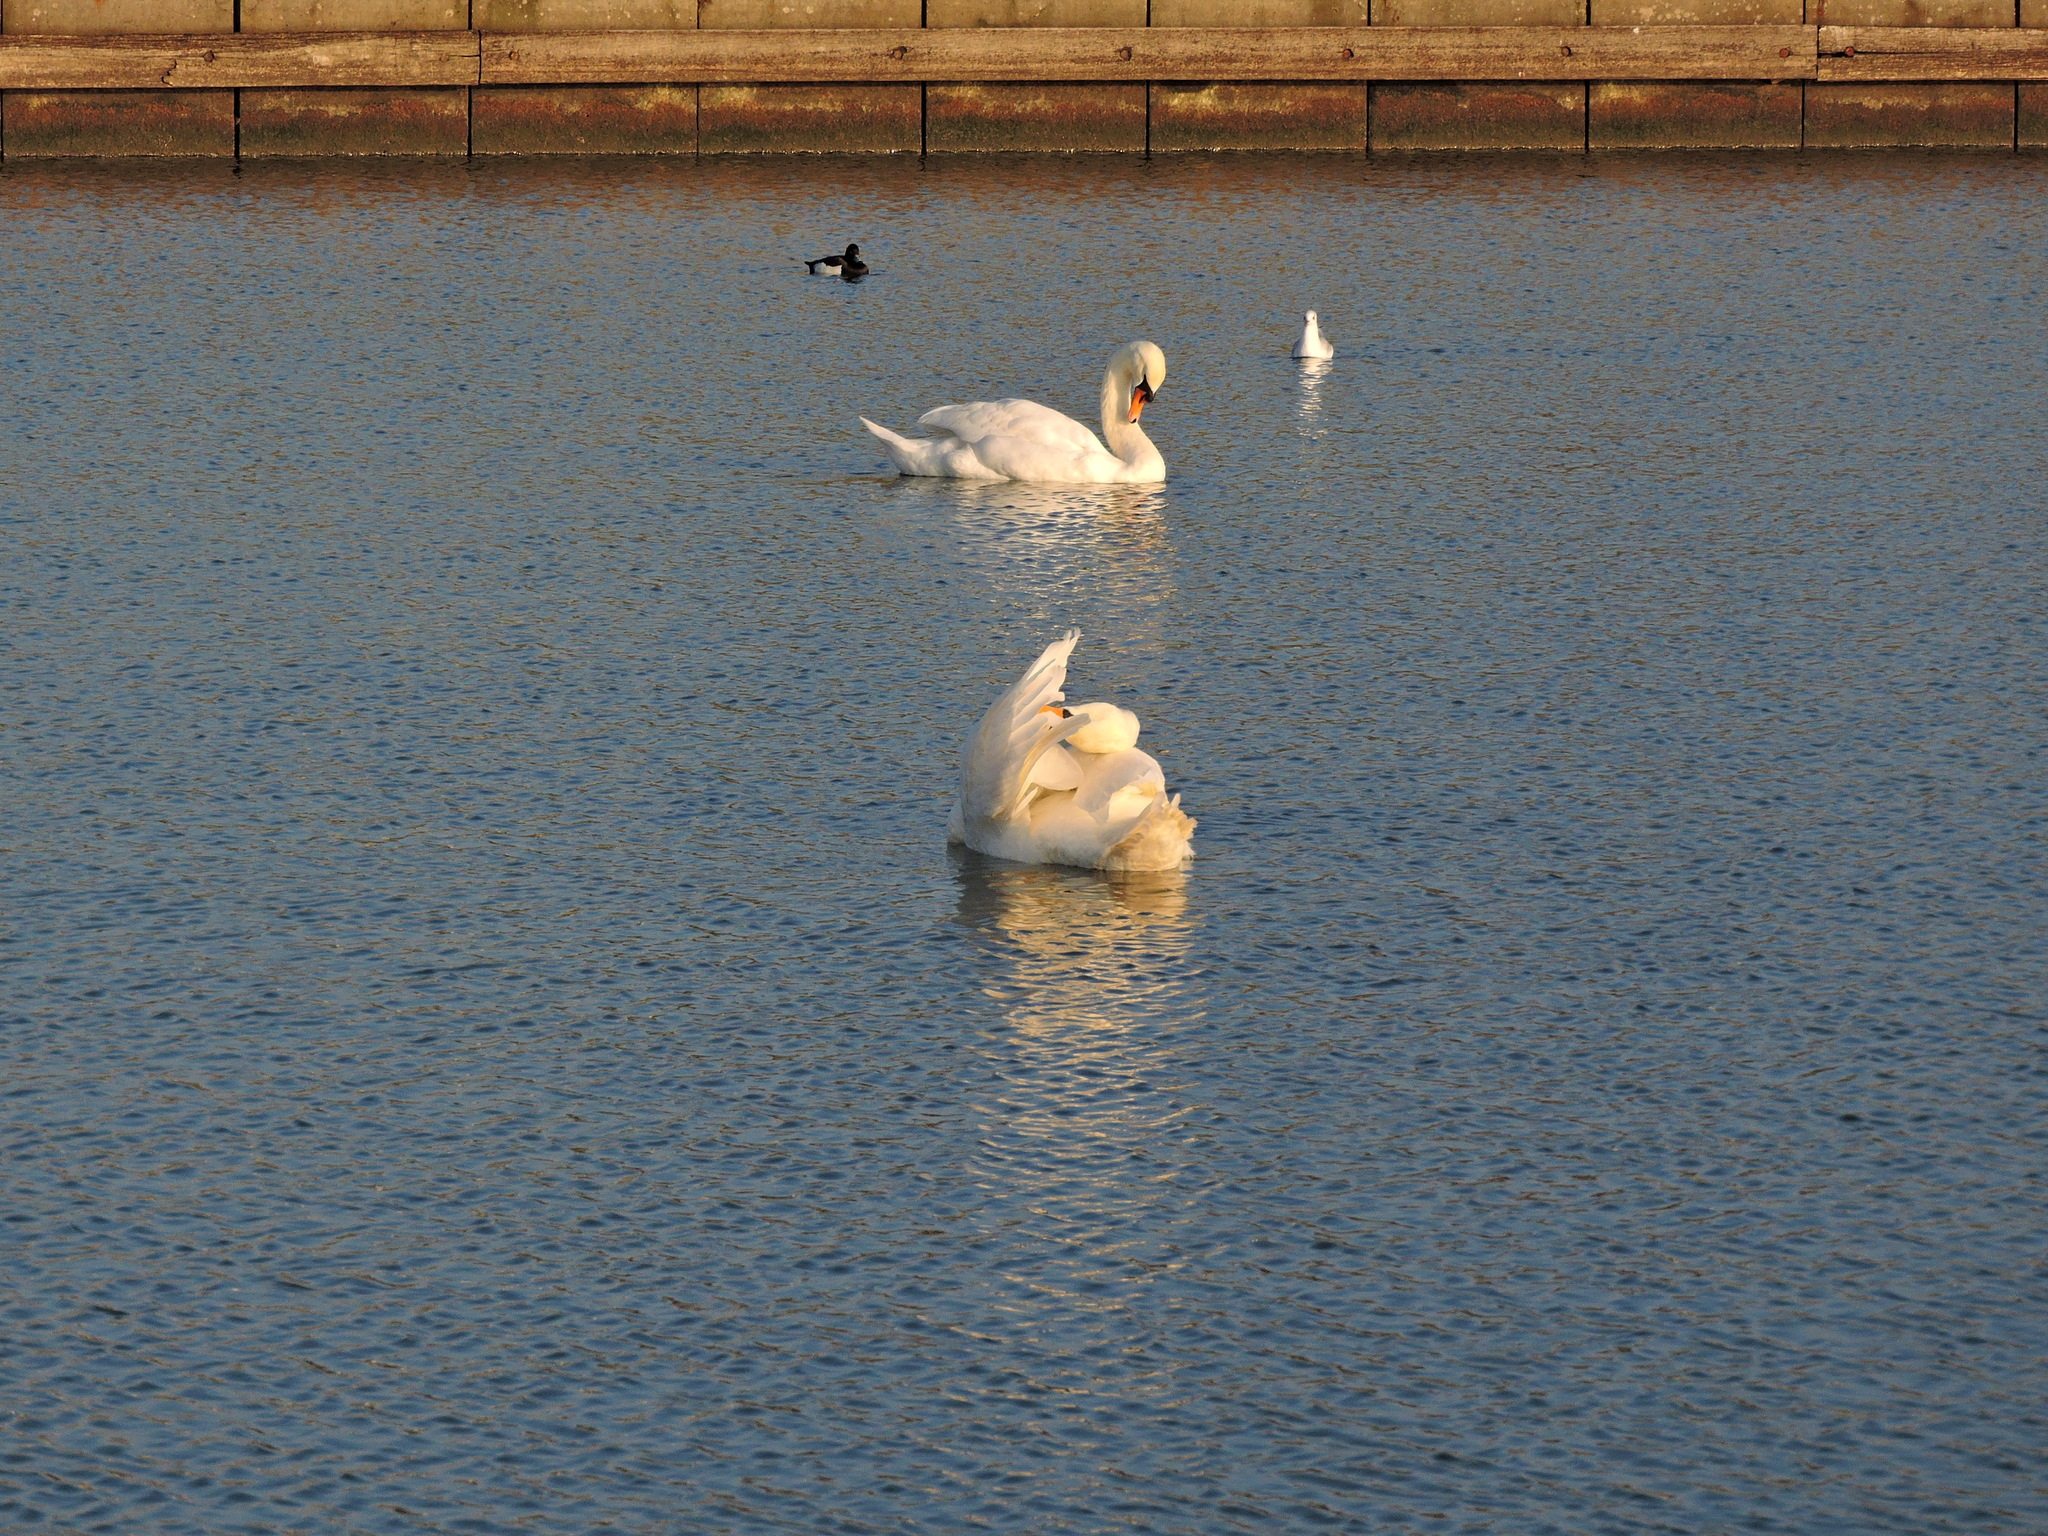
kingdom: Animalia
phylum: Chordata
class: Aves
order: Anseriformes
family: Anatidae
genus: Cygnus
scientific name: Cygnus olor
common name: Mute swan
